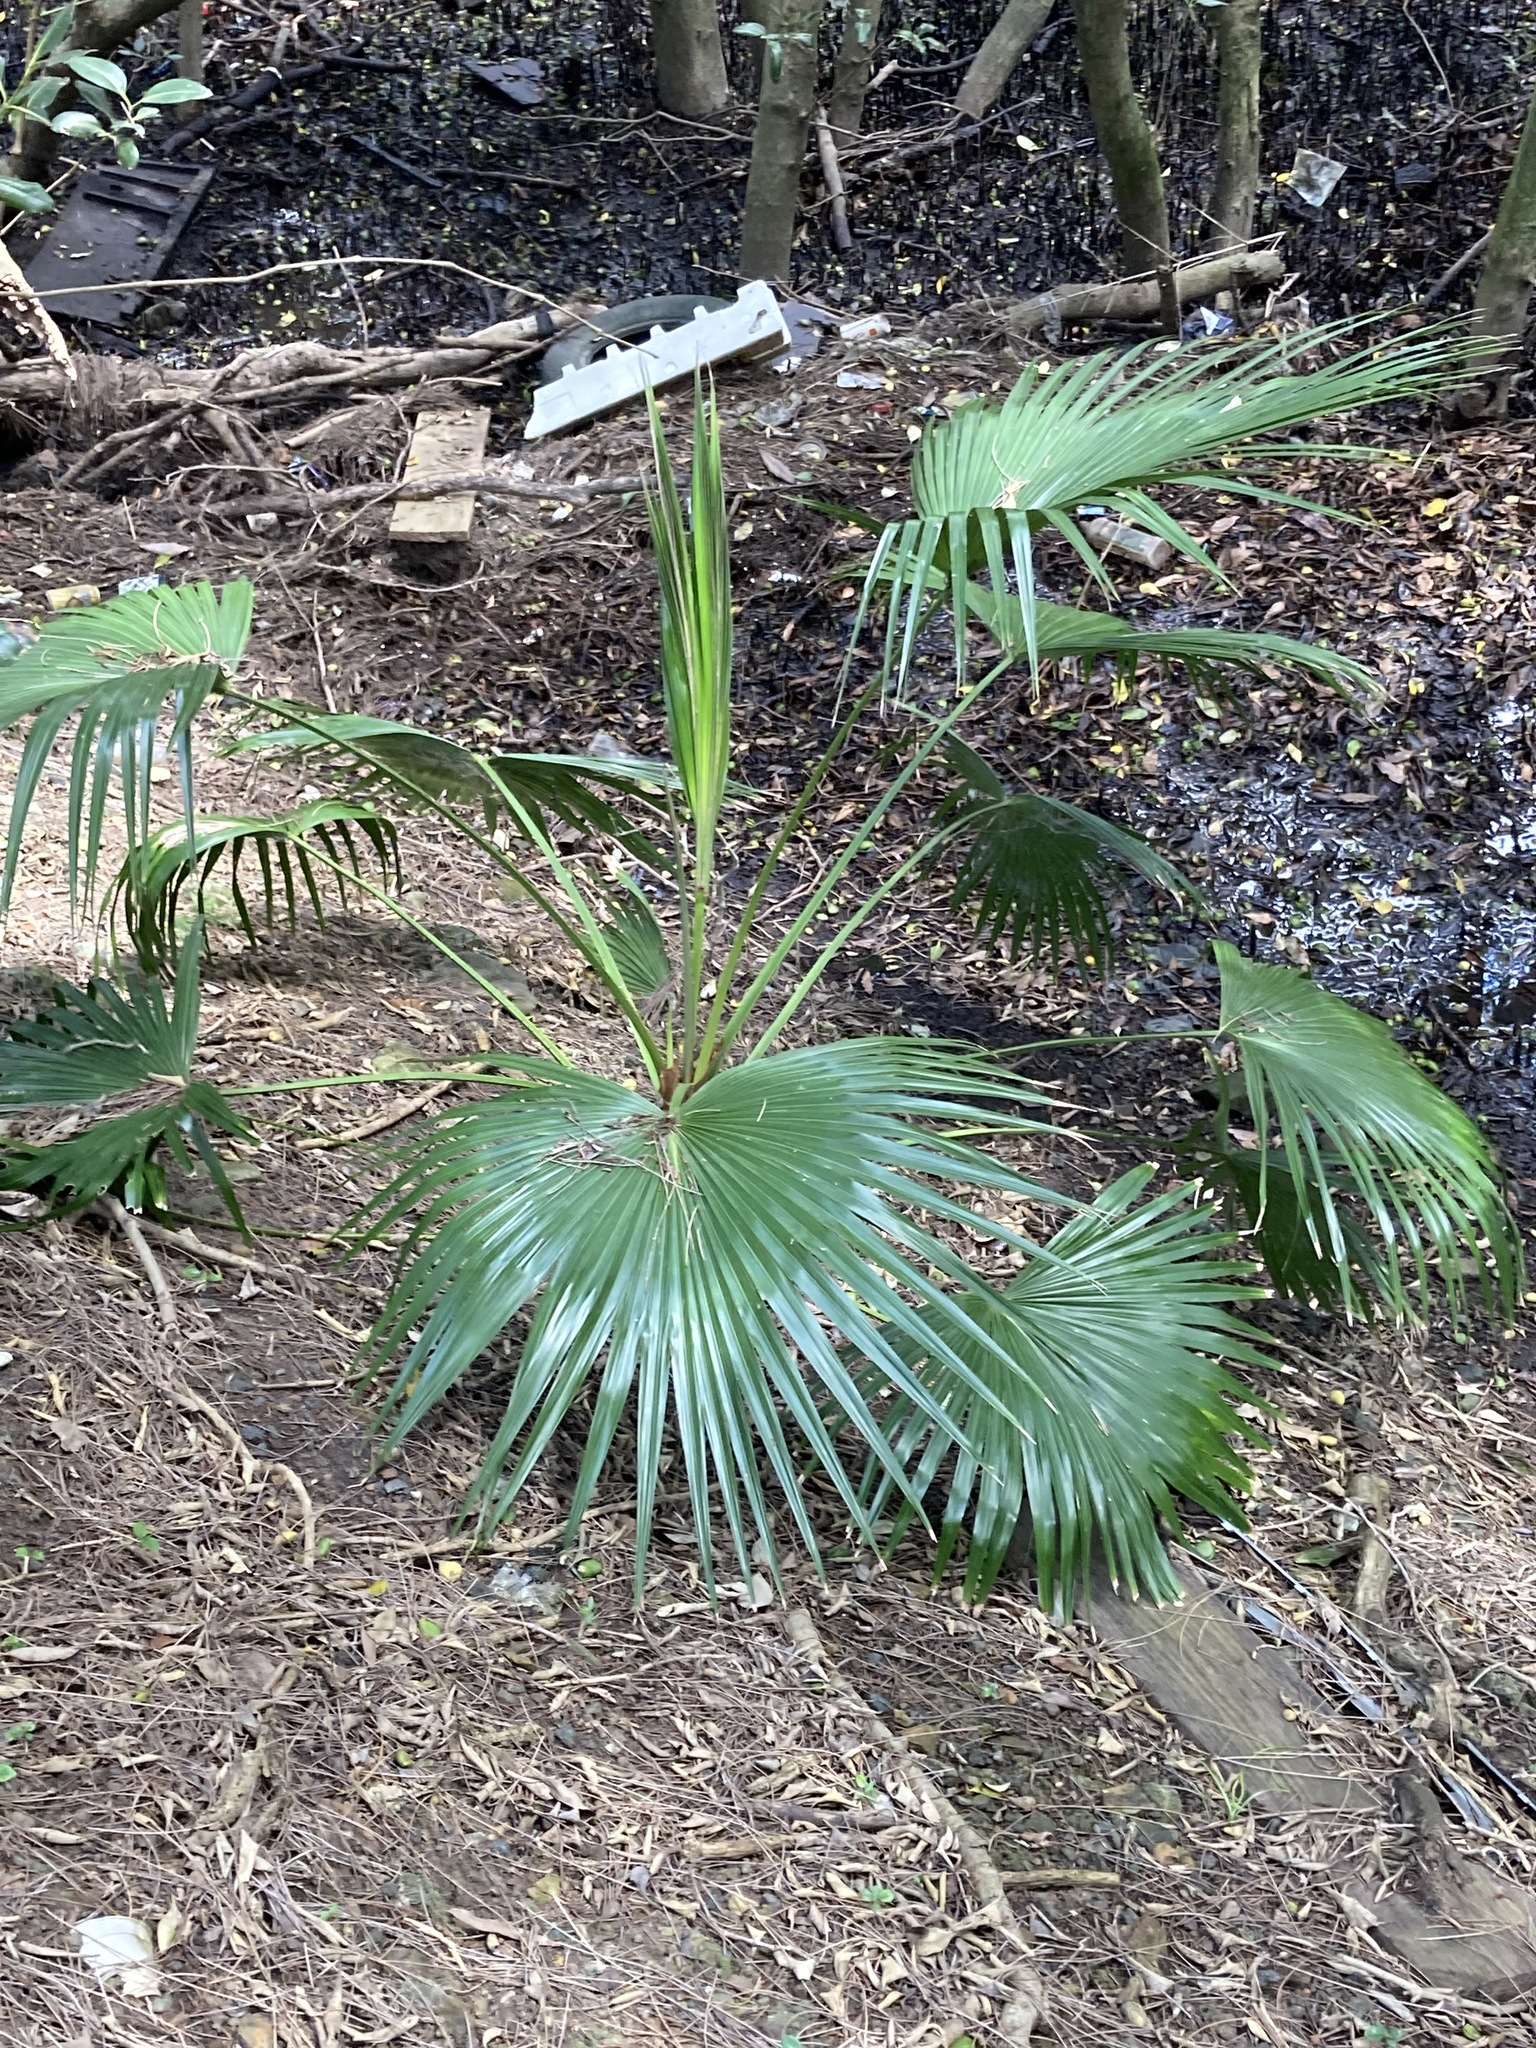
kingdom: Plantae
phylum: Tracheophyta
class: Liliopsida
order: Arecales
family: Arecaceae
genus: Livistona
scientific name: Livistona australis
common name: Cabbage fan palm
